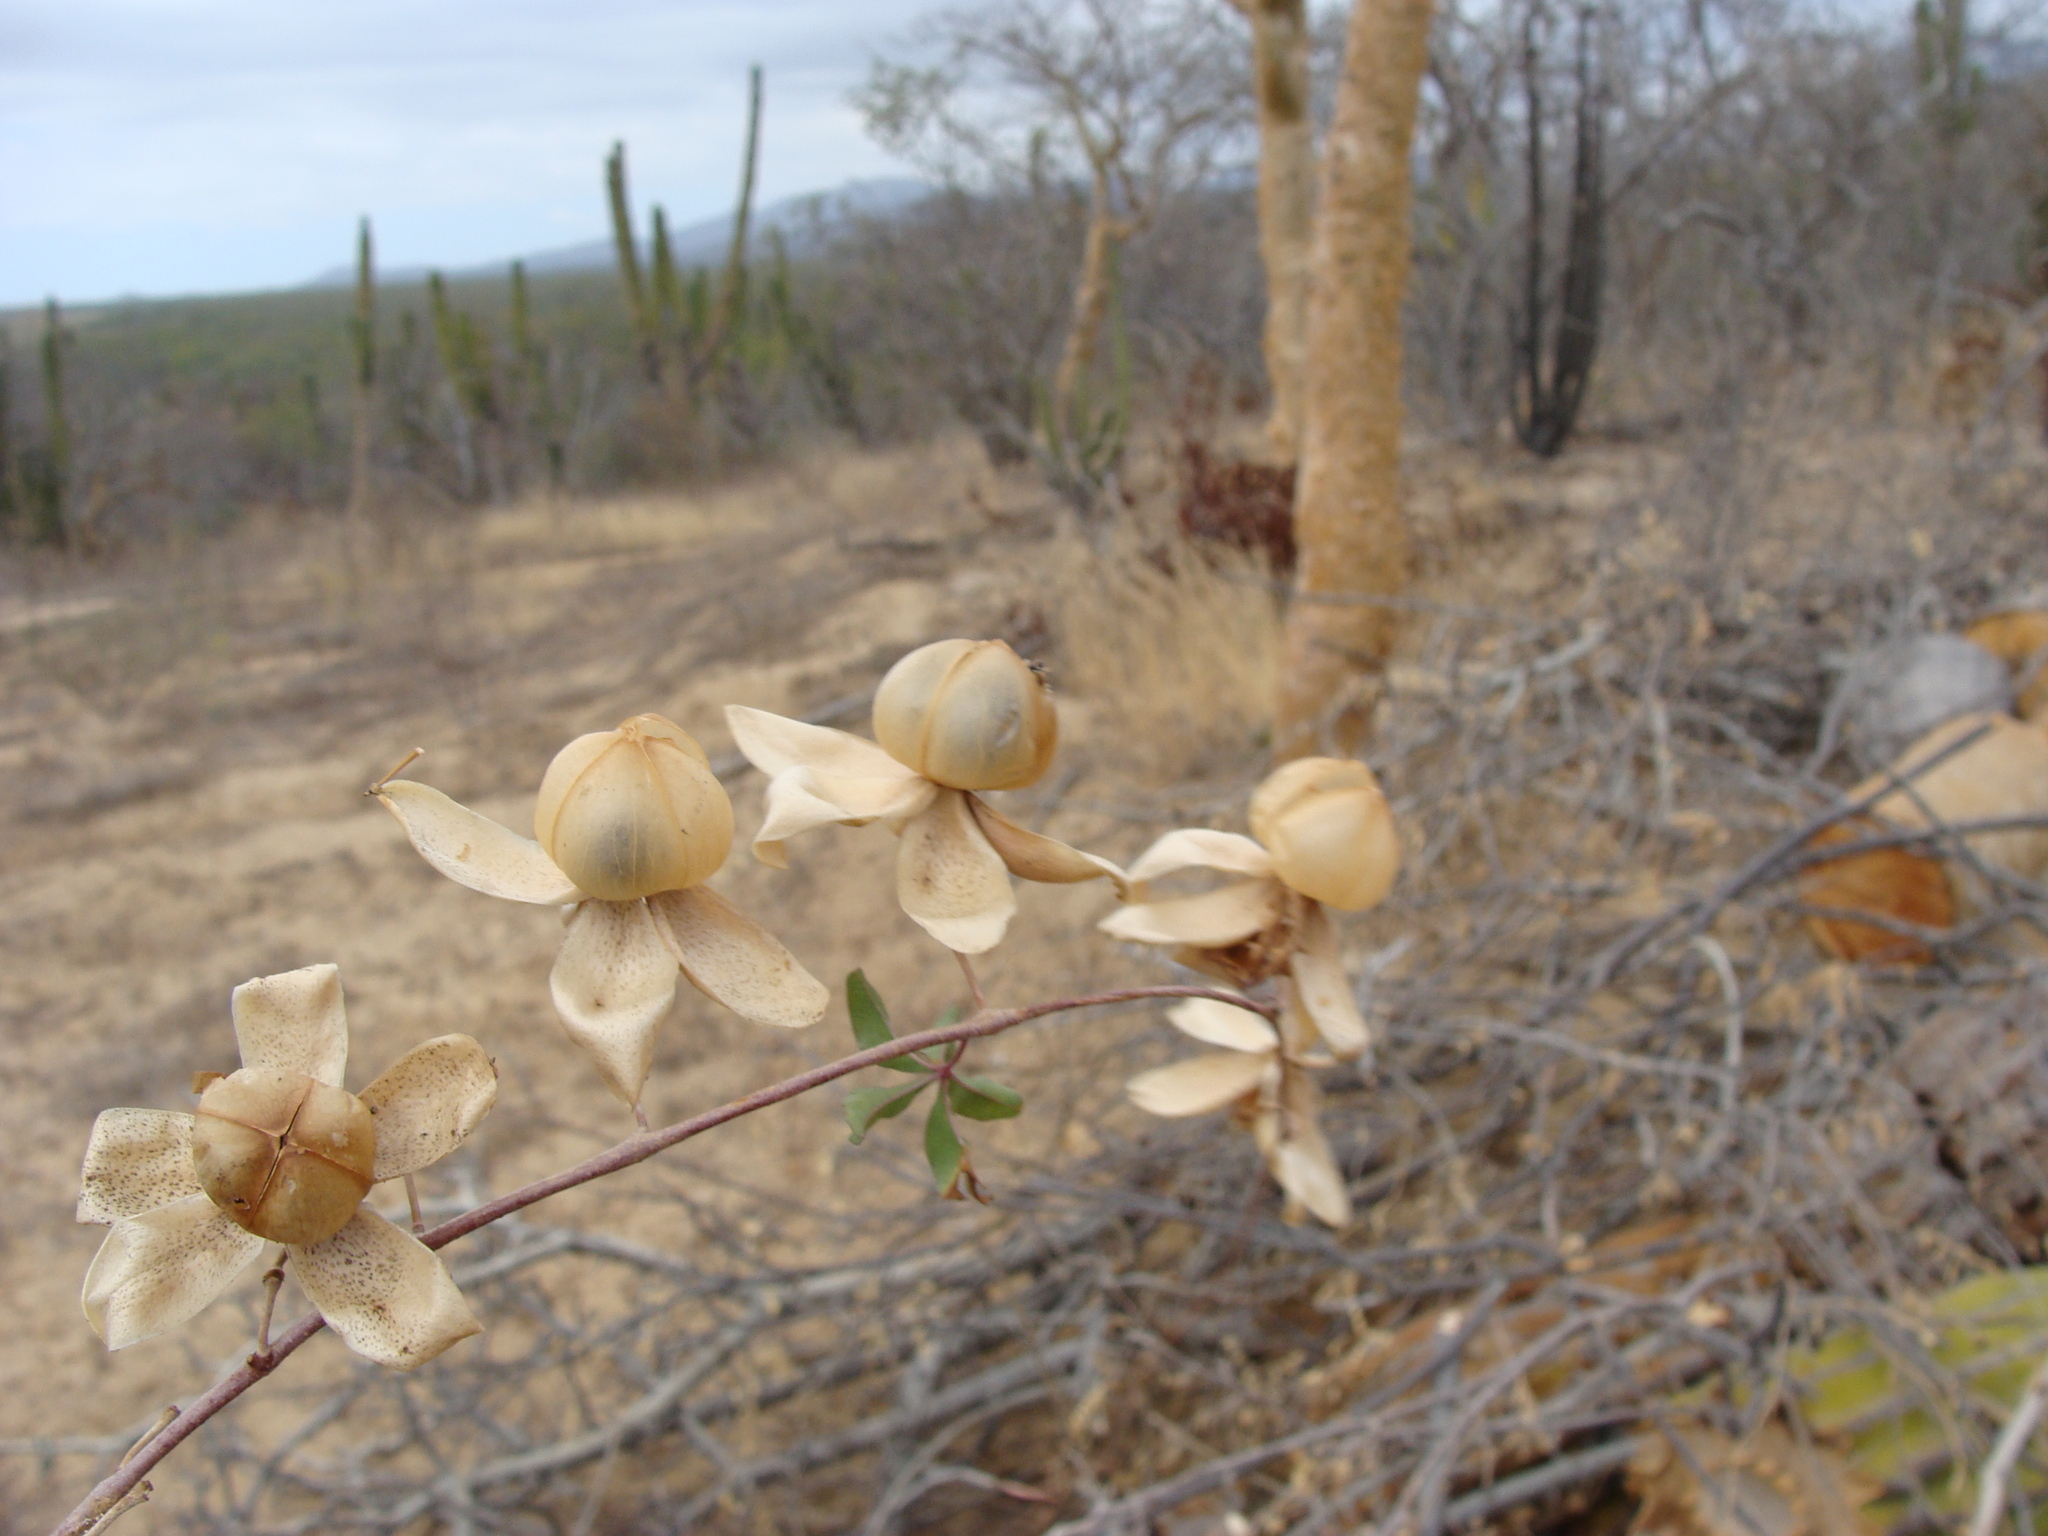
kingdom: Plantae
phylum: Tracheophyta
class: Magnoliopsida
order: Solanales
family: Convolvulaceae
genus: Distimake
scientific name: Distimake aureus
